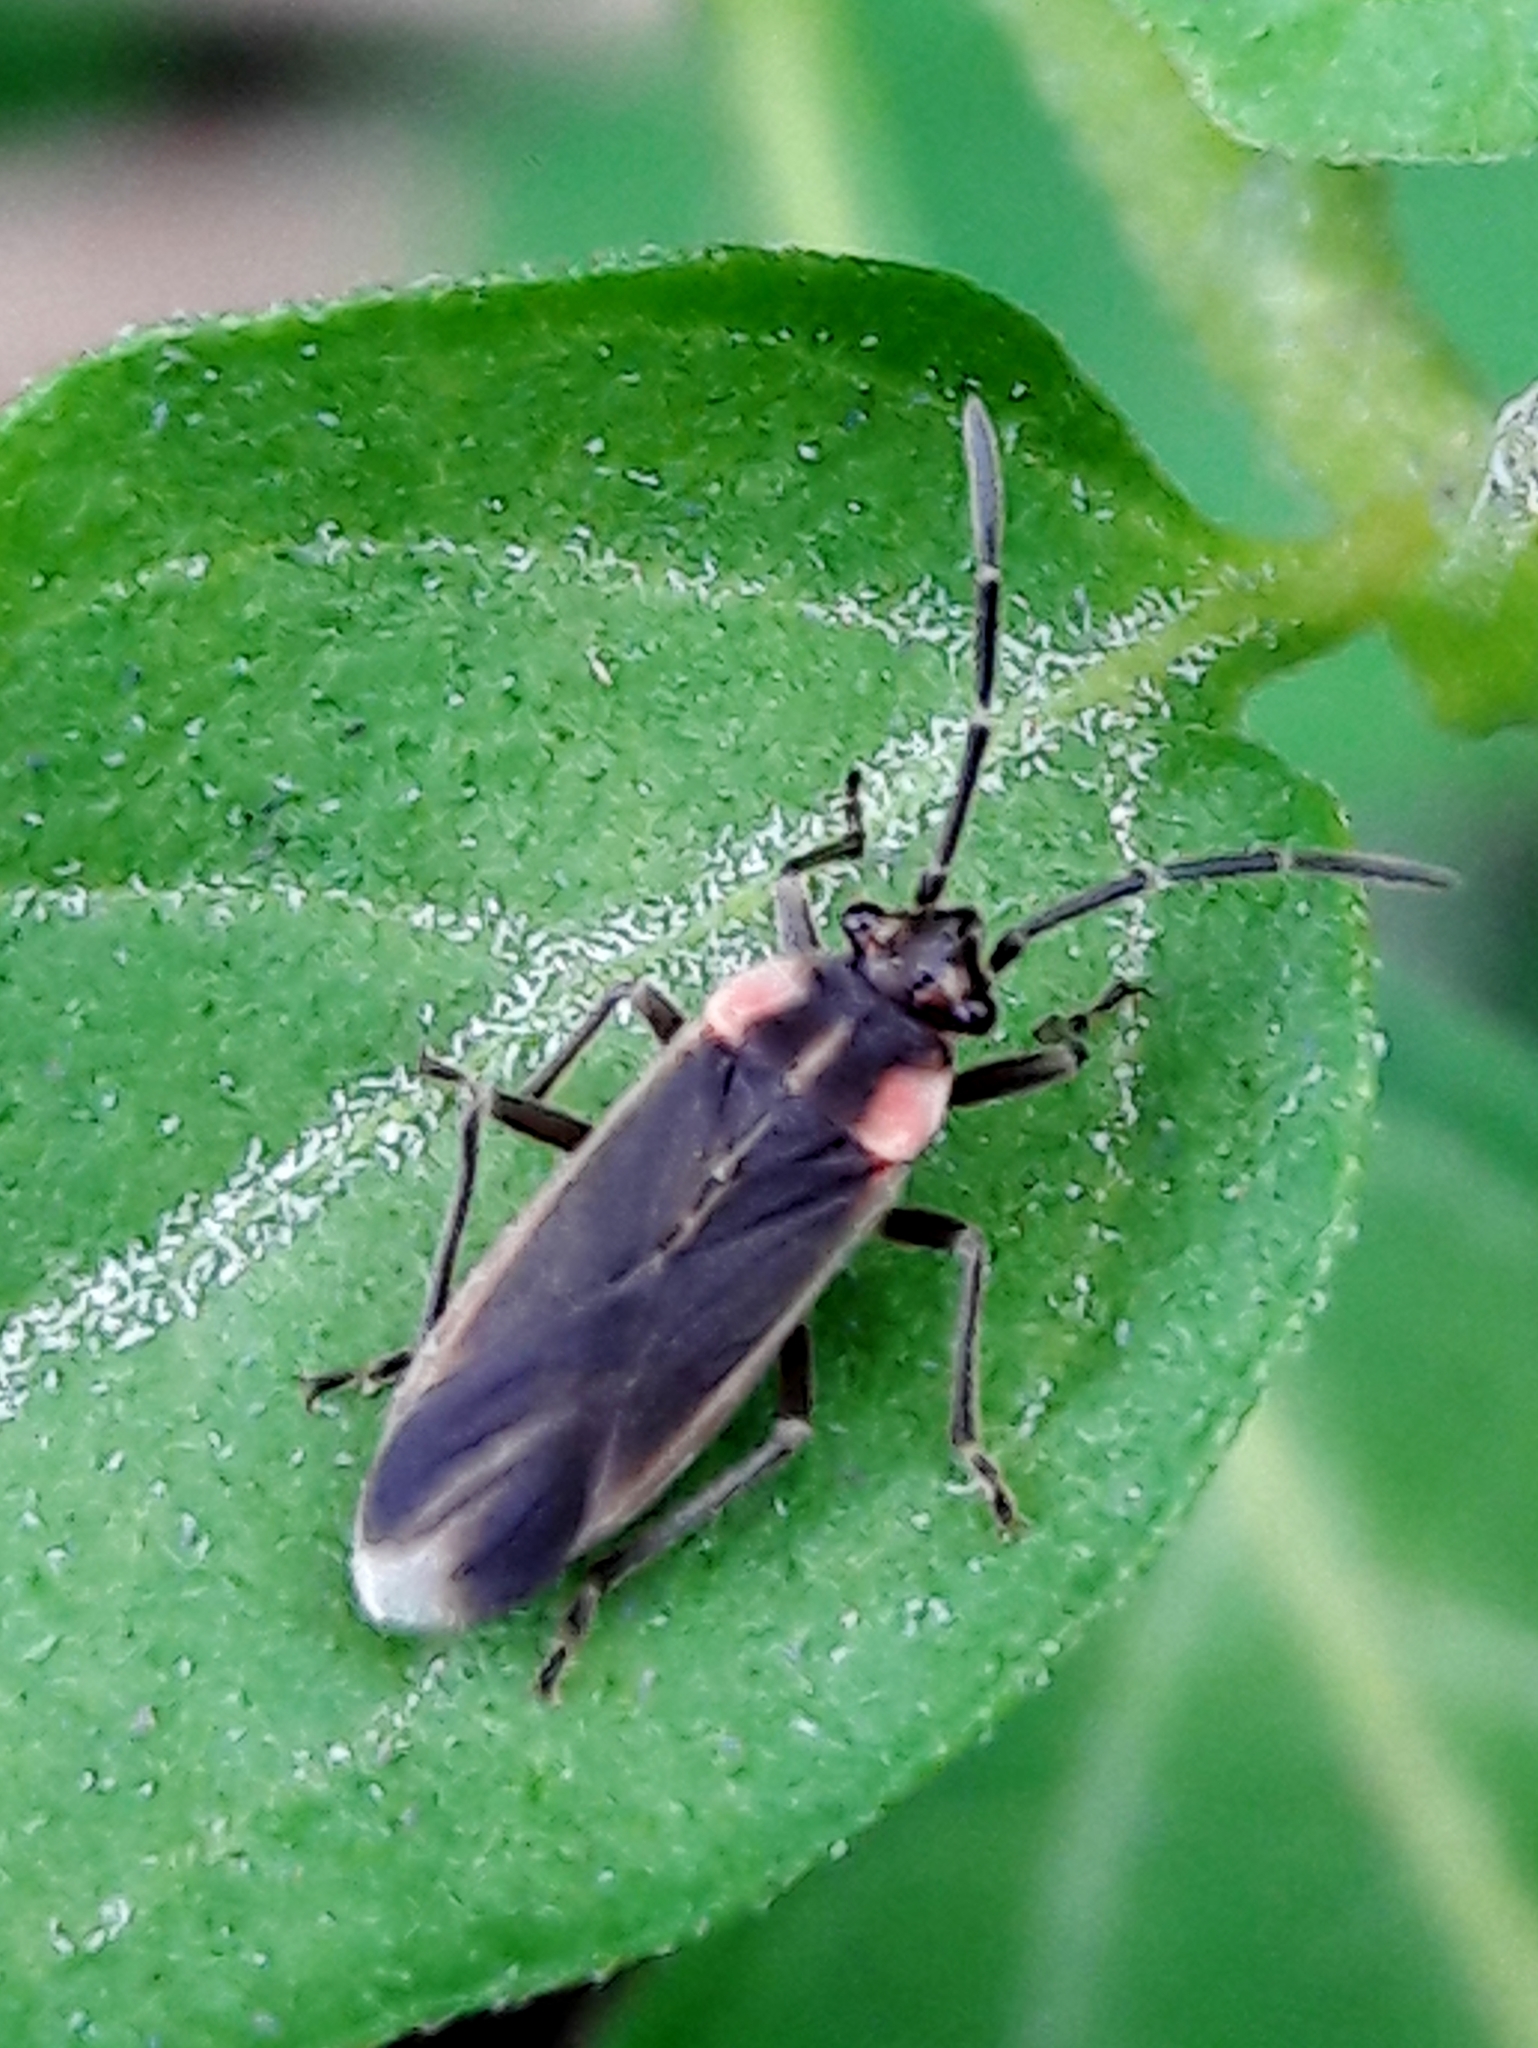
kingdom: Animalia
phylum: Arthropoda
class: Insecta
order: Hemiptera
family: Lygaeidae
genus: Acroleucus
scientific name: Acroleucus coxalis
